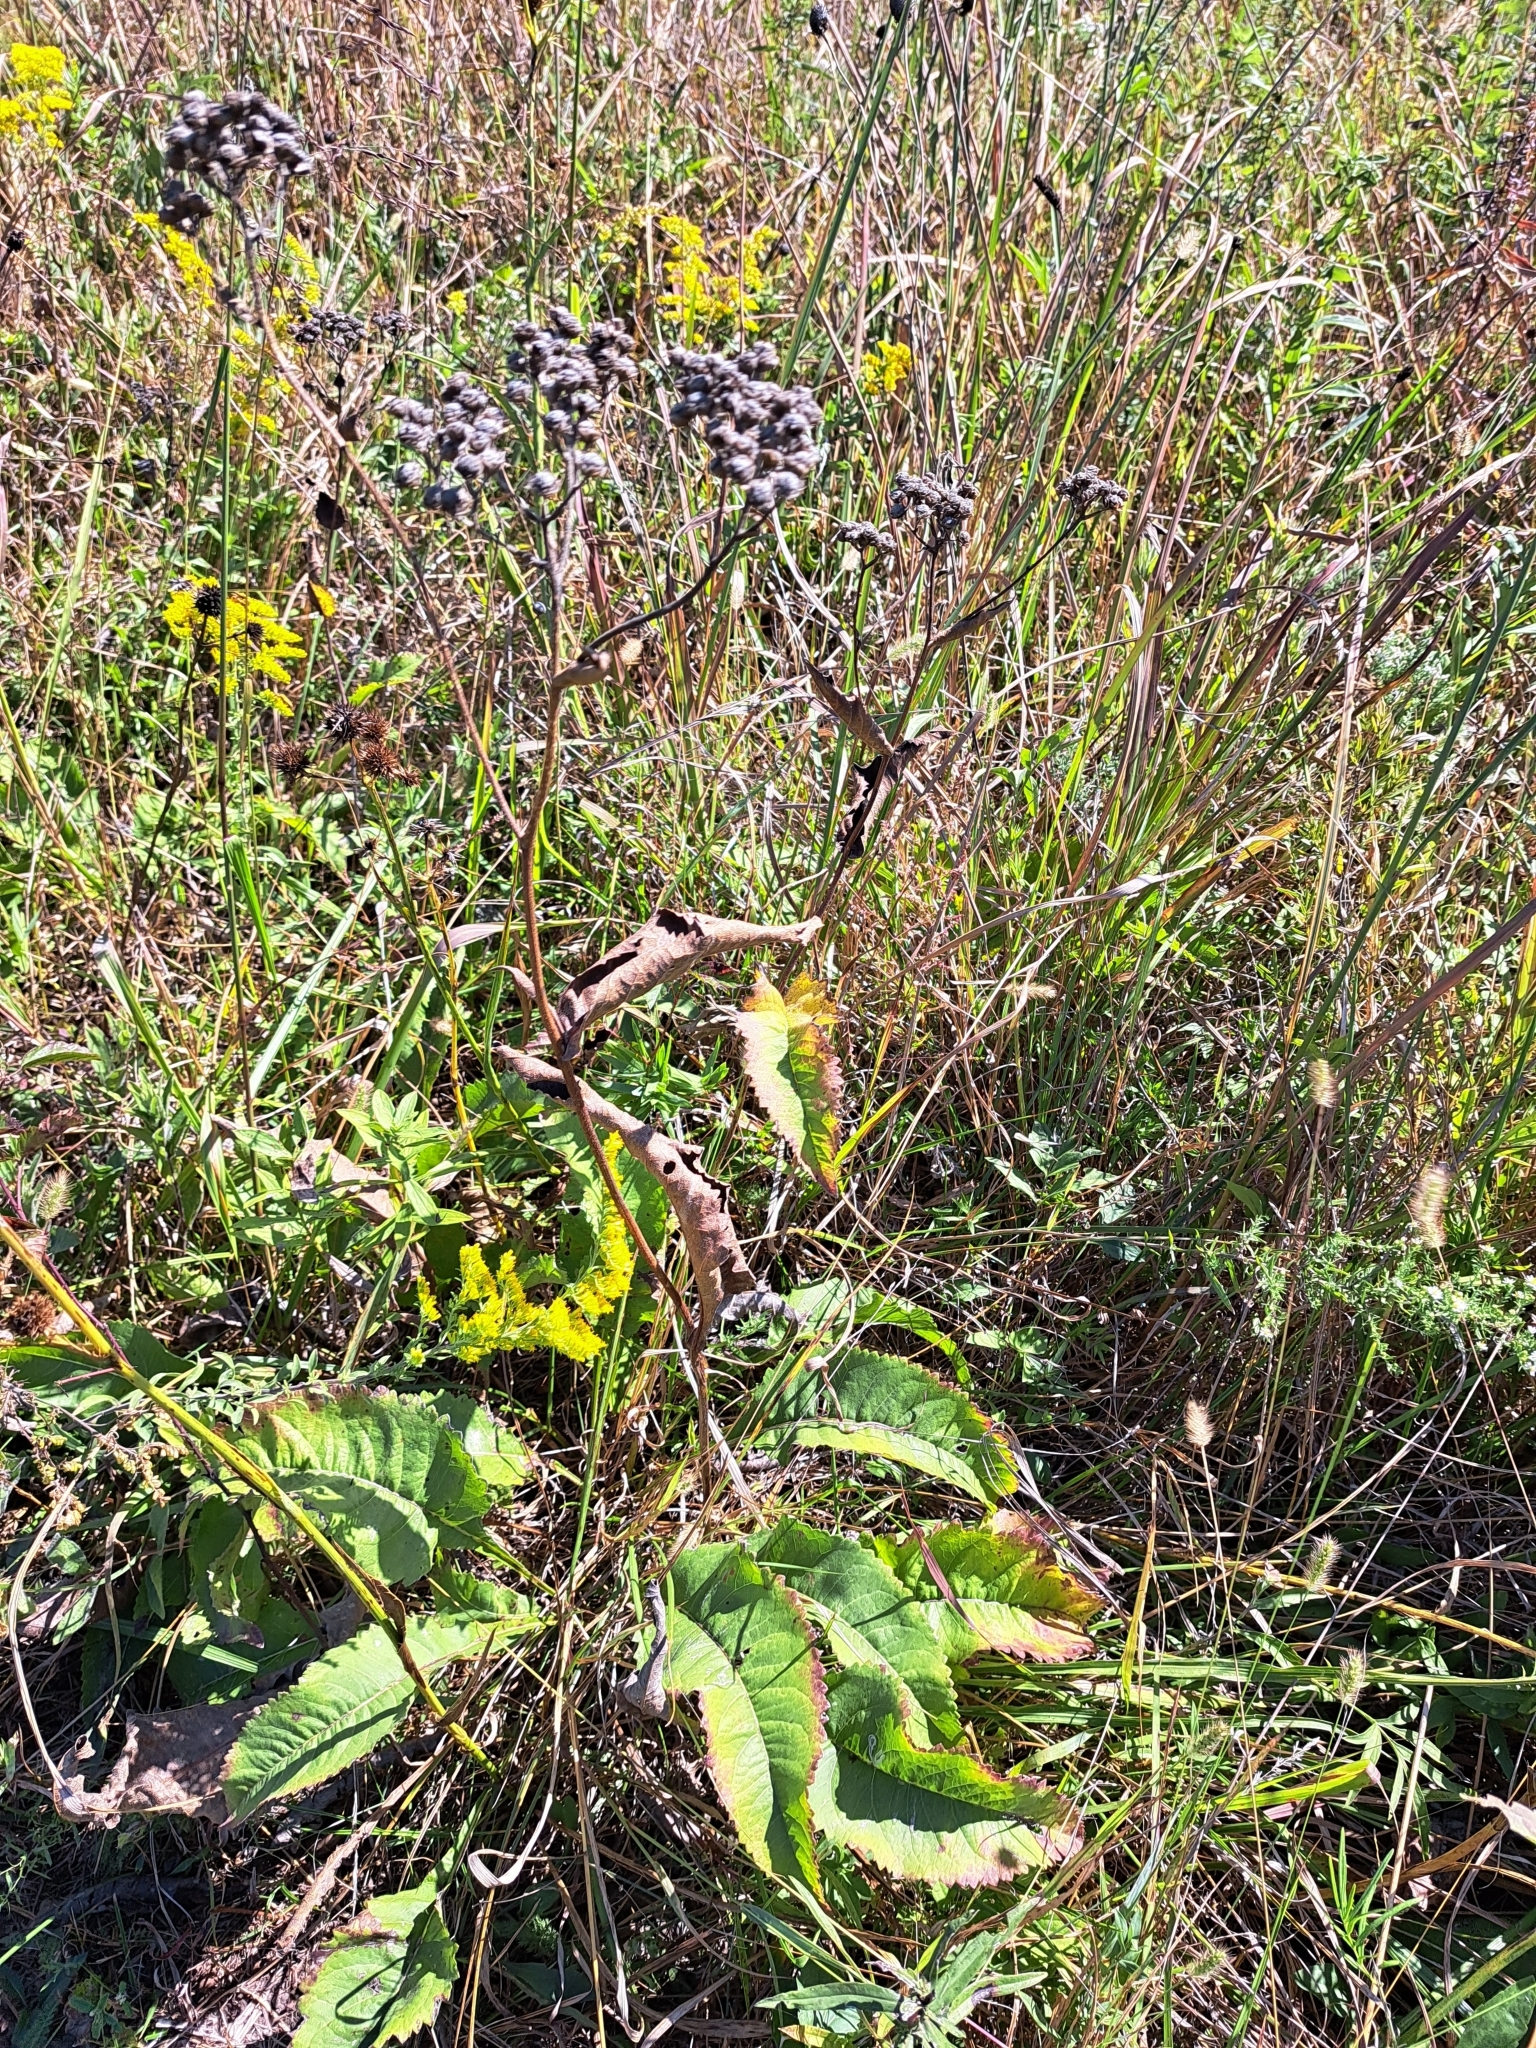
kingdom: Plantae
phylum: Tracheophyta
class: Magnoliopsida
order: Asterales
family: Asteraceae
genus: Parthenium
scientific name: Parthenium integrifolium
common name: American feverfew
